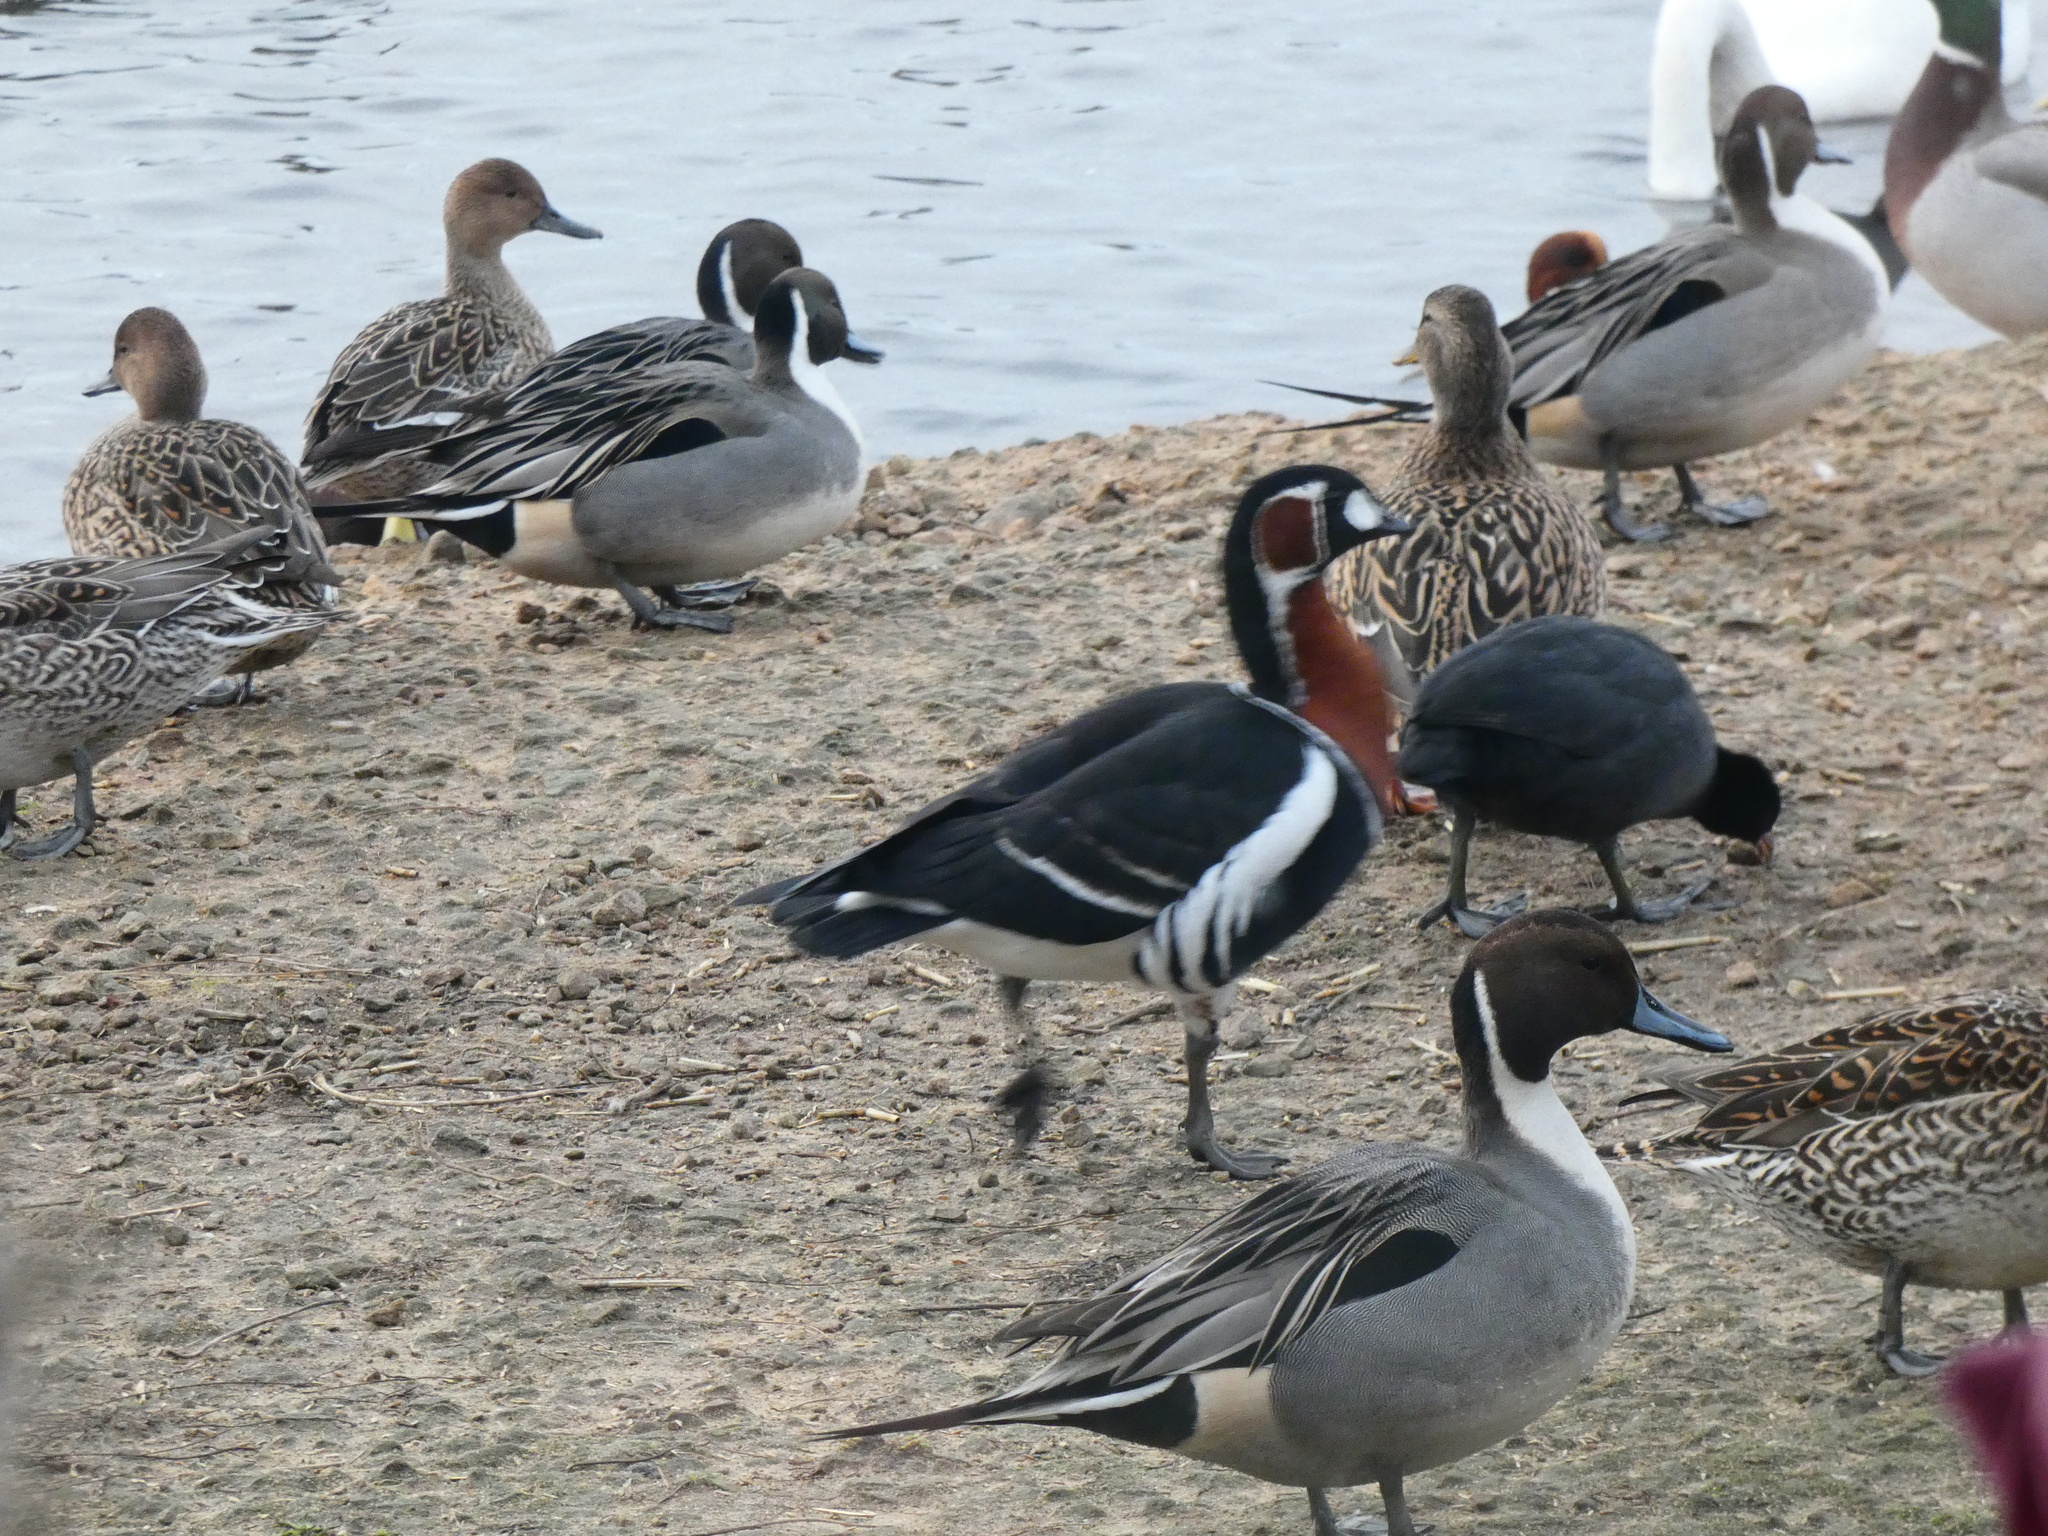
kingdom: Animalia
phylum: Chordata
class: Aves
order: Anseriformes
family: Anatidae
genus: Branta
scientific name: Branta ruficollis
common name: Red-breasted goose
